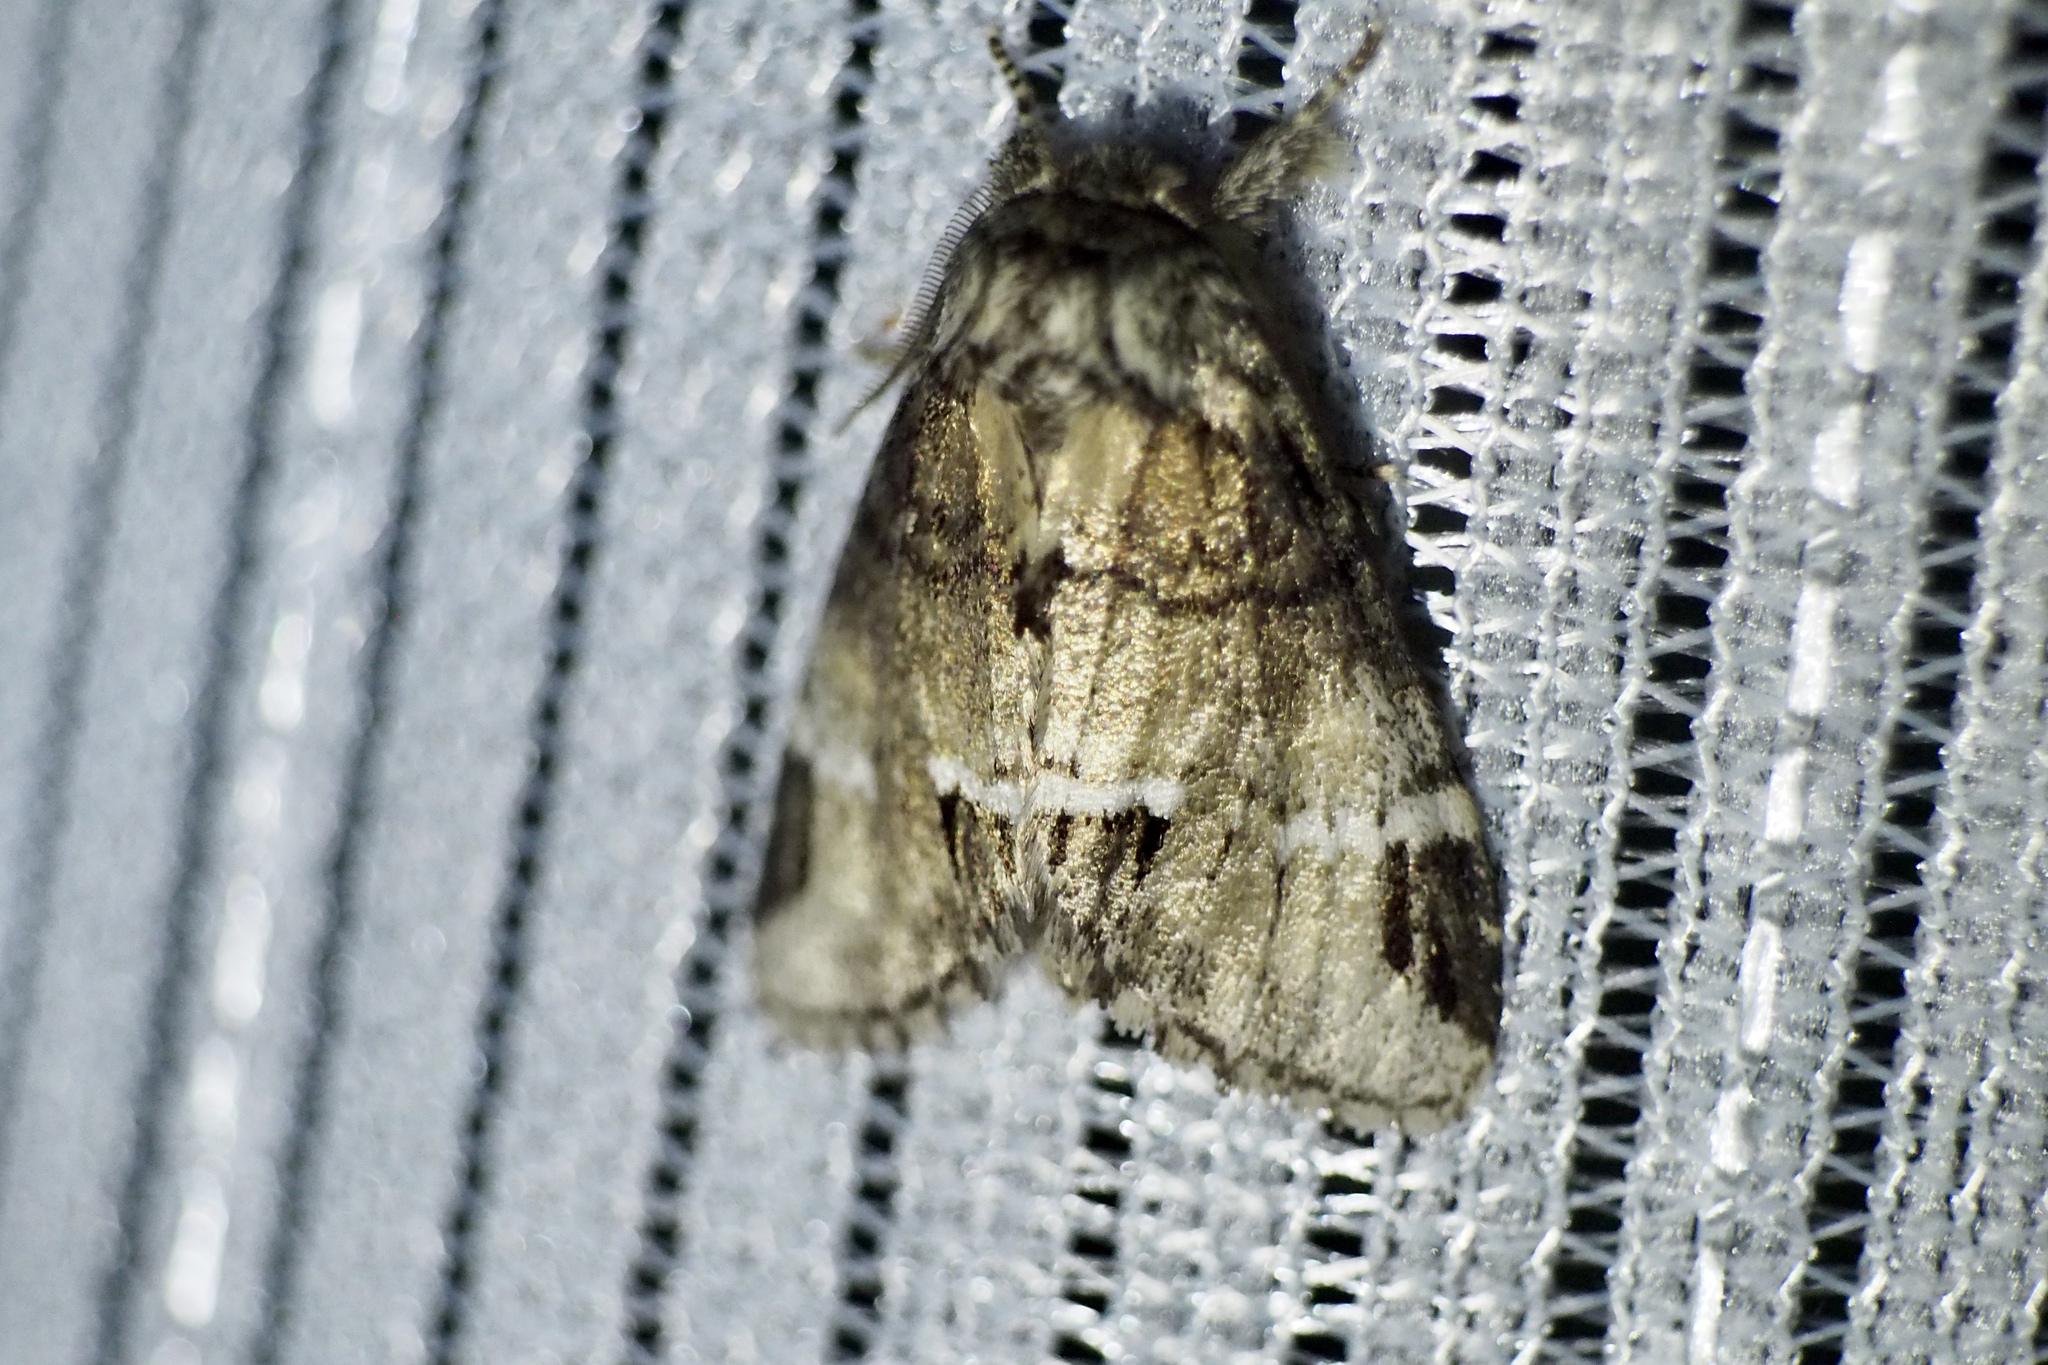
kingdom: Animalia
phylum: Arthropoda
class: Insecta
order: Lepidoptera
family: Notodontidae
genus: Drymonia
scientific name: Drymonia japonica
